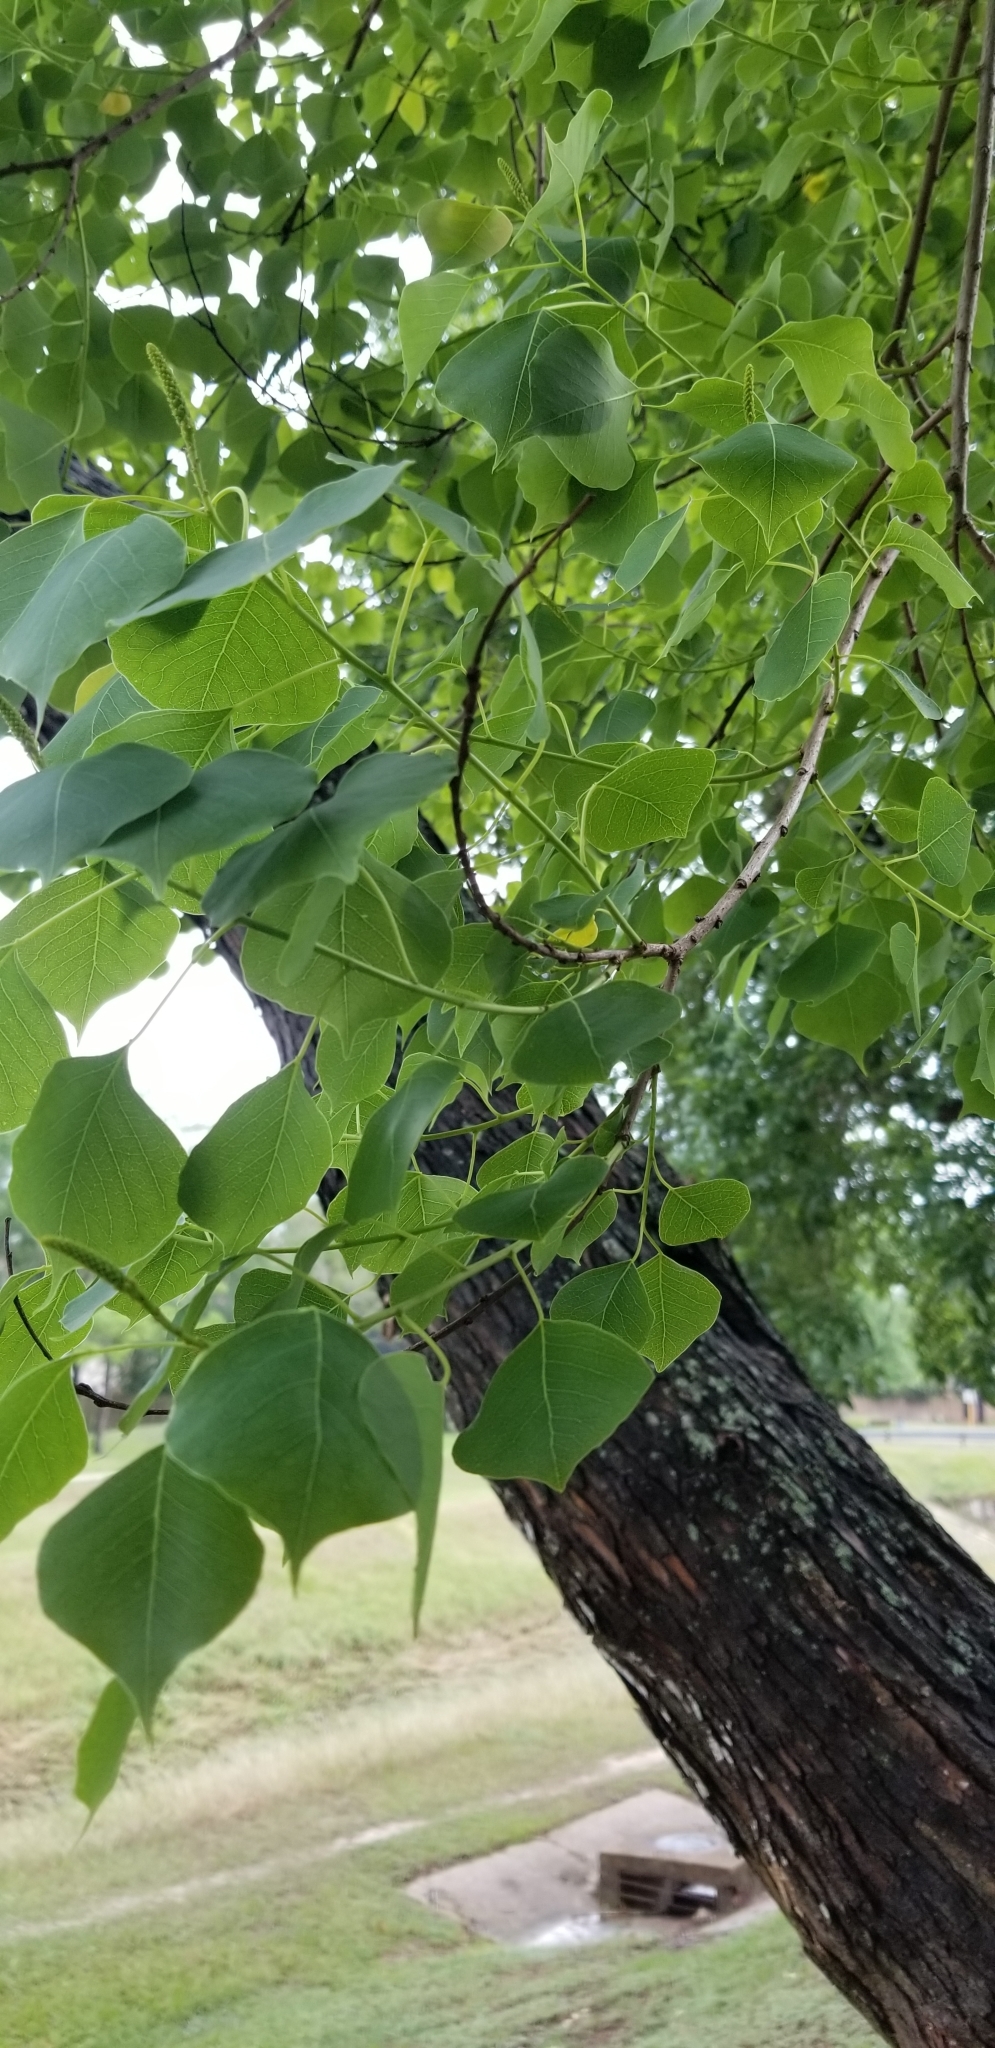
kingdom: Plantae
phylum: Tracheophyta
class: Magnoliopsida
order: Malpighiales
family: Euphorbiaceae
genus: Triadica
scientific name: Triadica sebifera
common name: Chinese tallow
